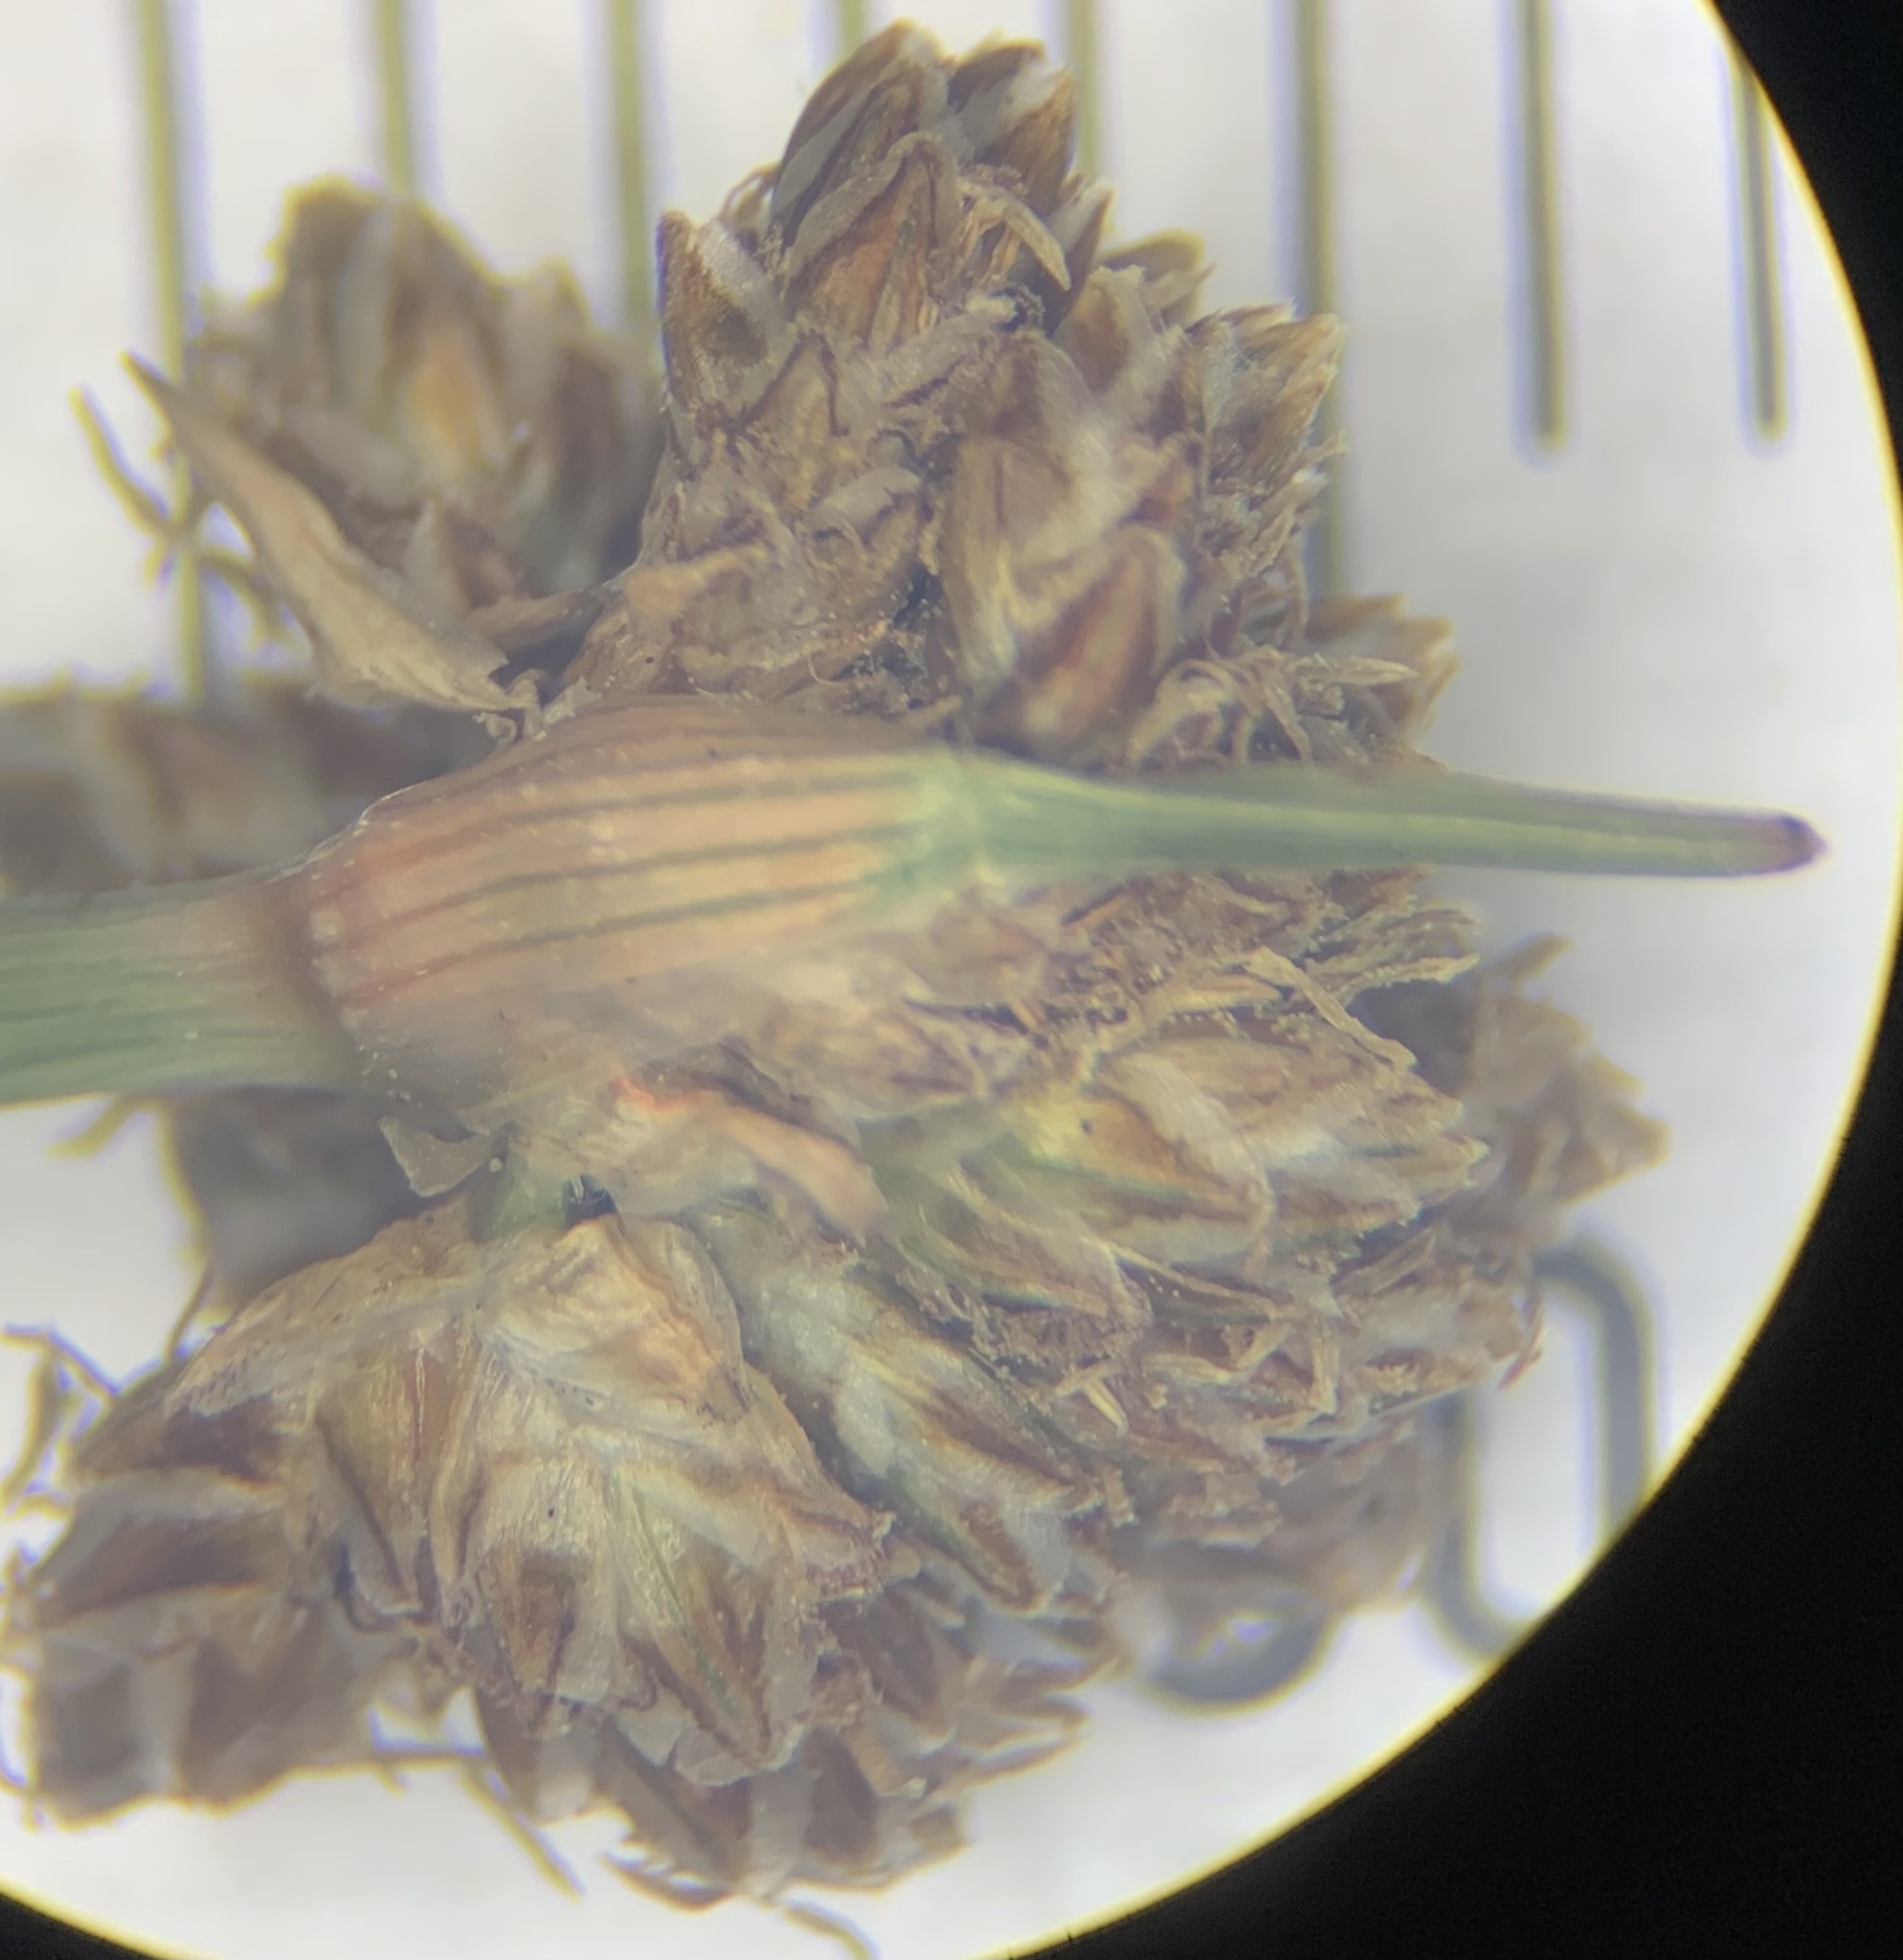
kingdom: Plantae
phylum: Tracheophyta
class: Liliopsida
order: Poales
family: Cyperaceae
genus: Fimbristylis
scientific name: Fimbristylis cymosa
